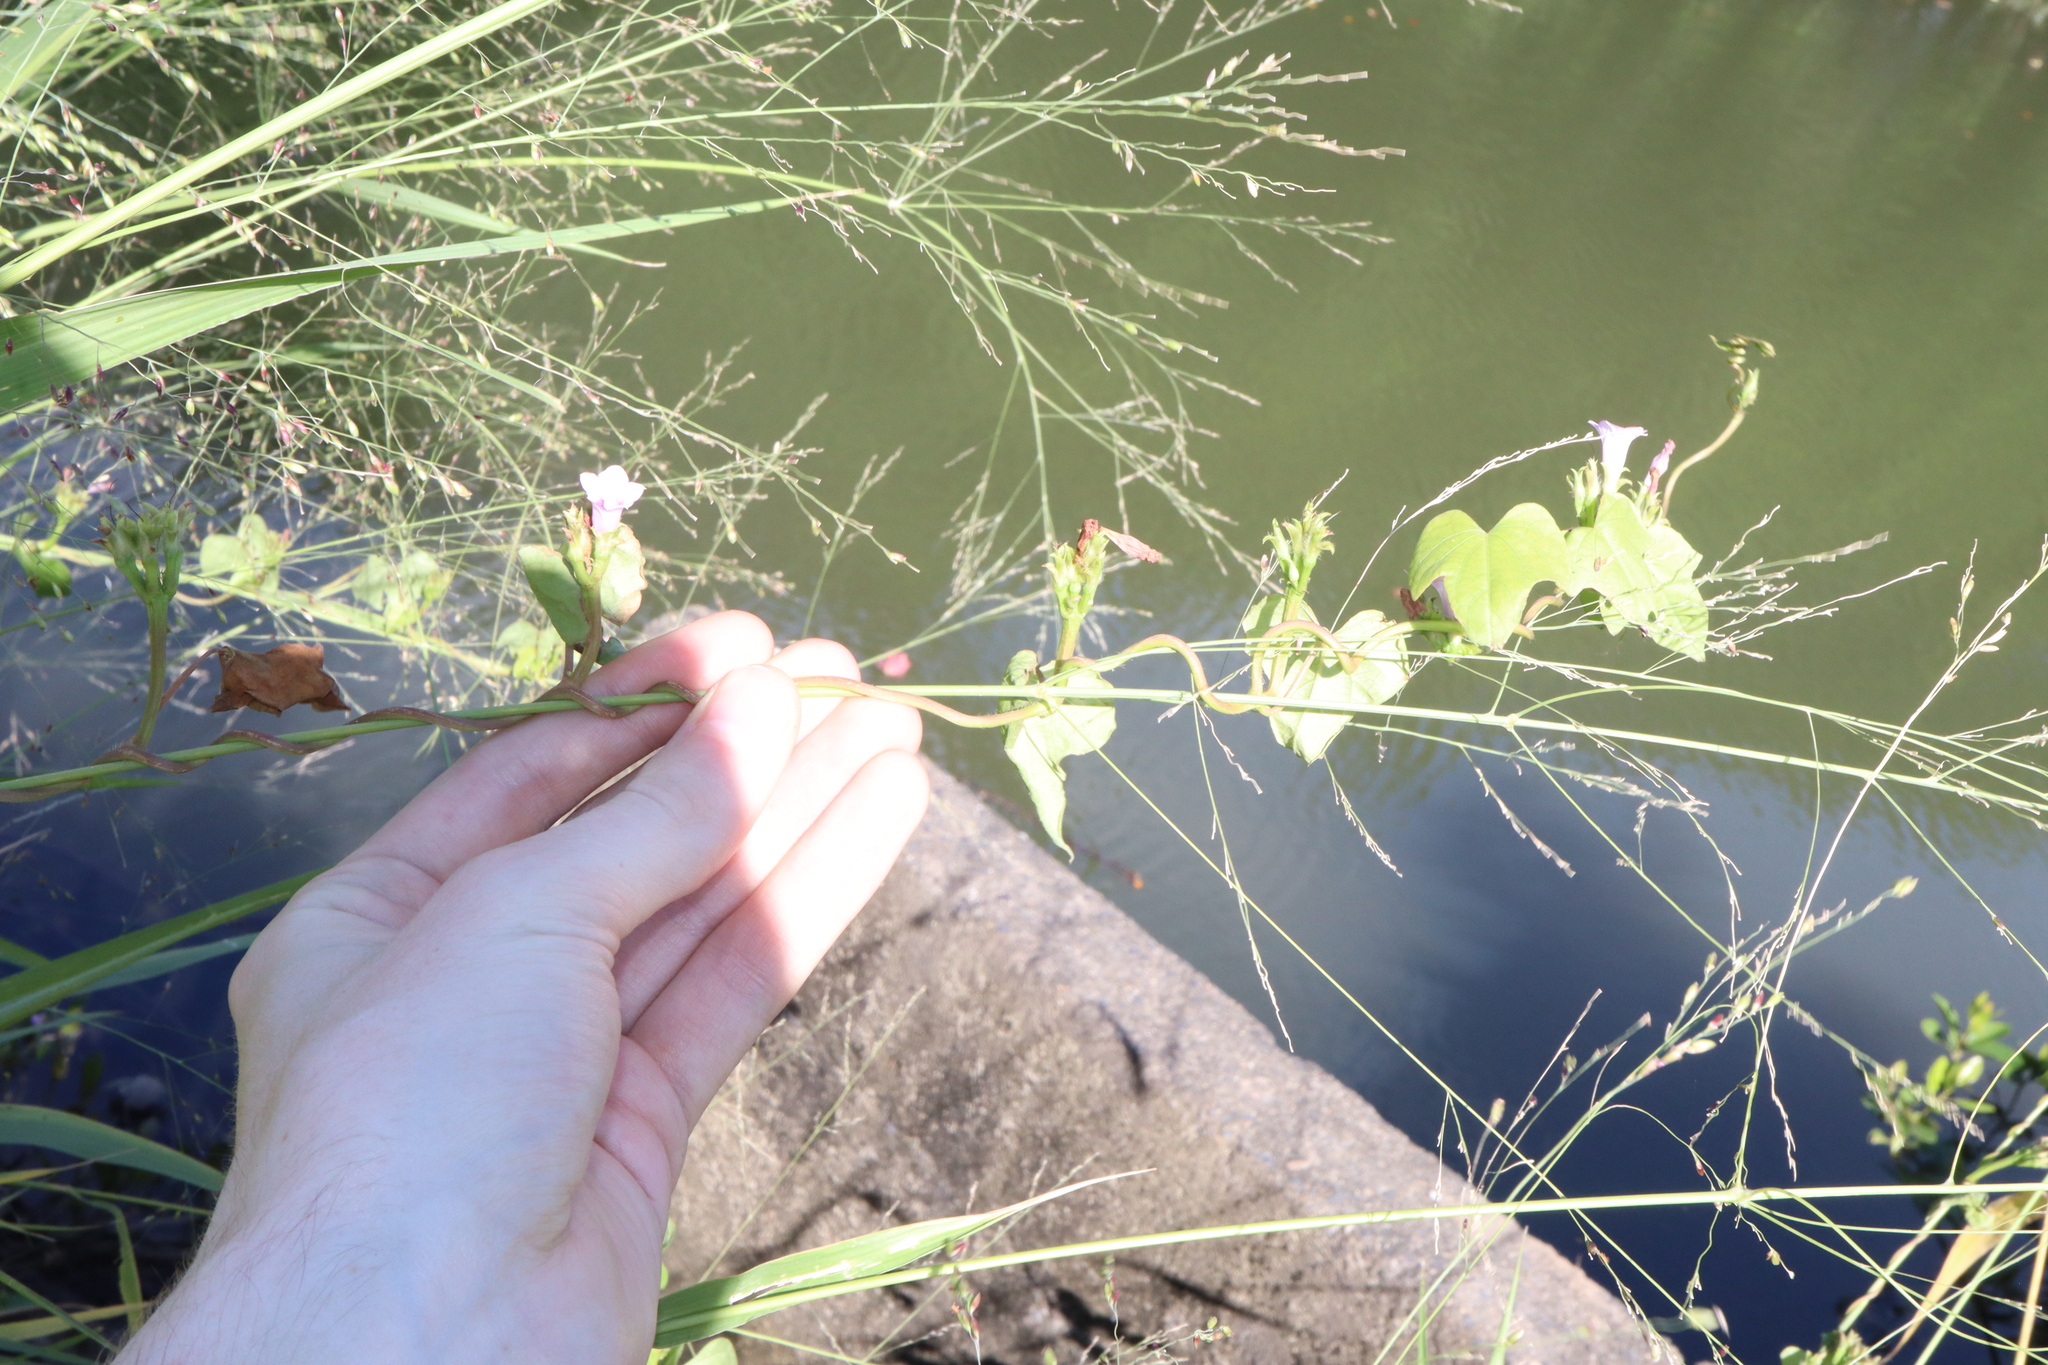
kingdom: Plantae
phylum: Tracheophyta
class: Magnoliopsida
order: Solanales
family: Convolvulaceae
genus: Ipomoea
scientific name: Ipomoea triloba
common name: Little-bell
